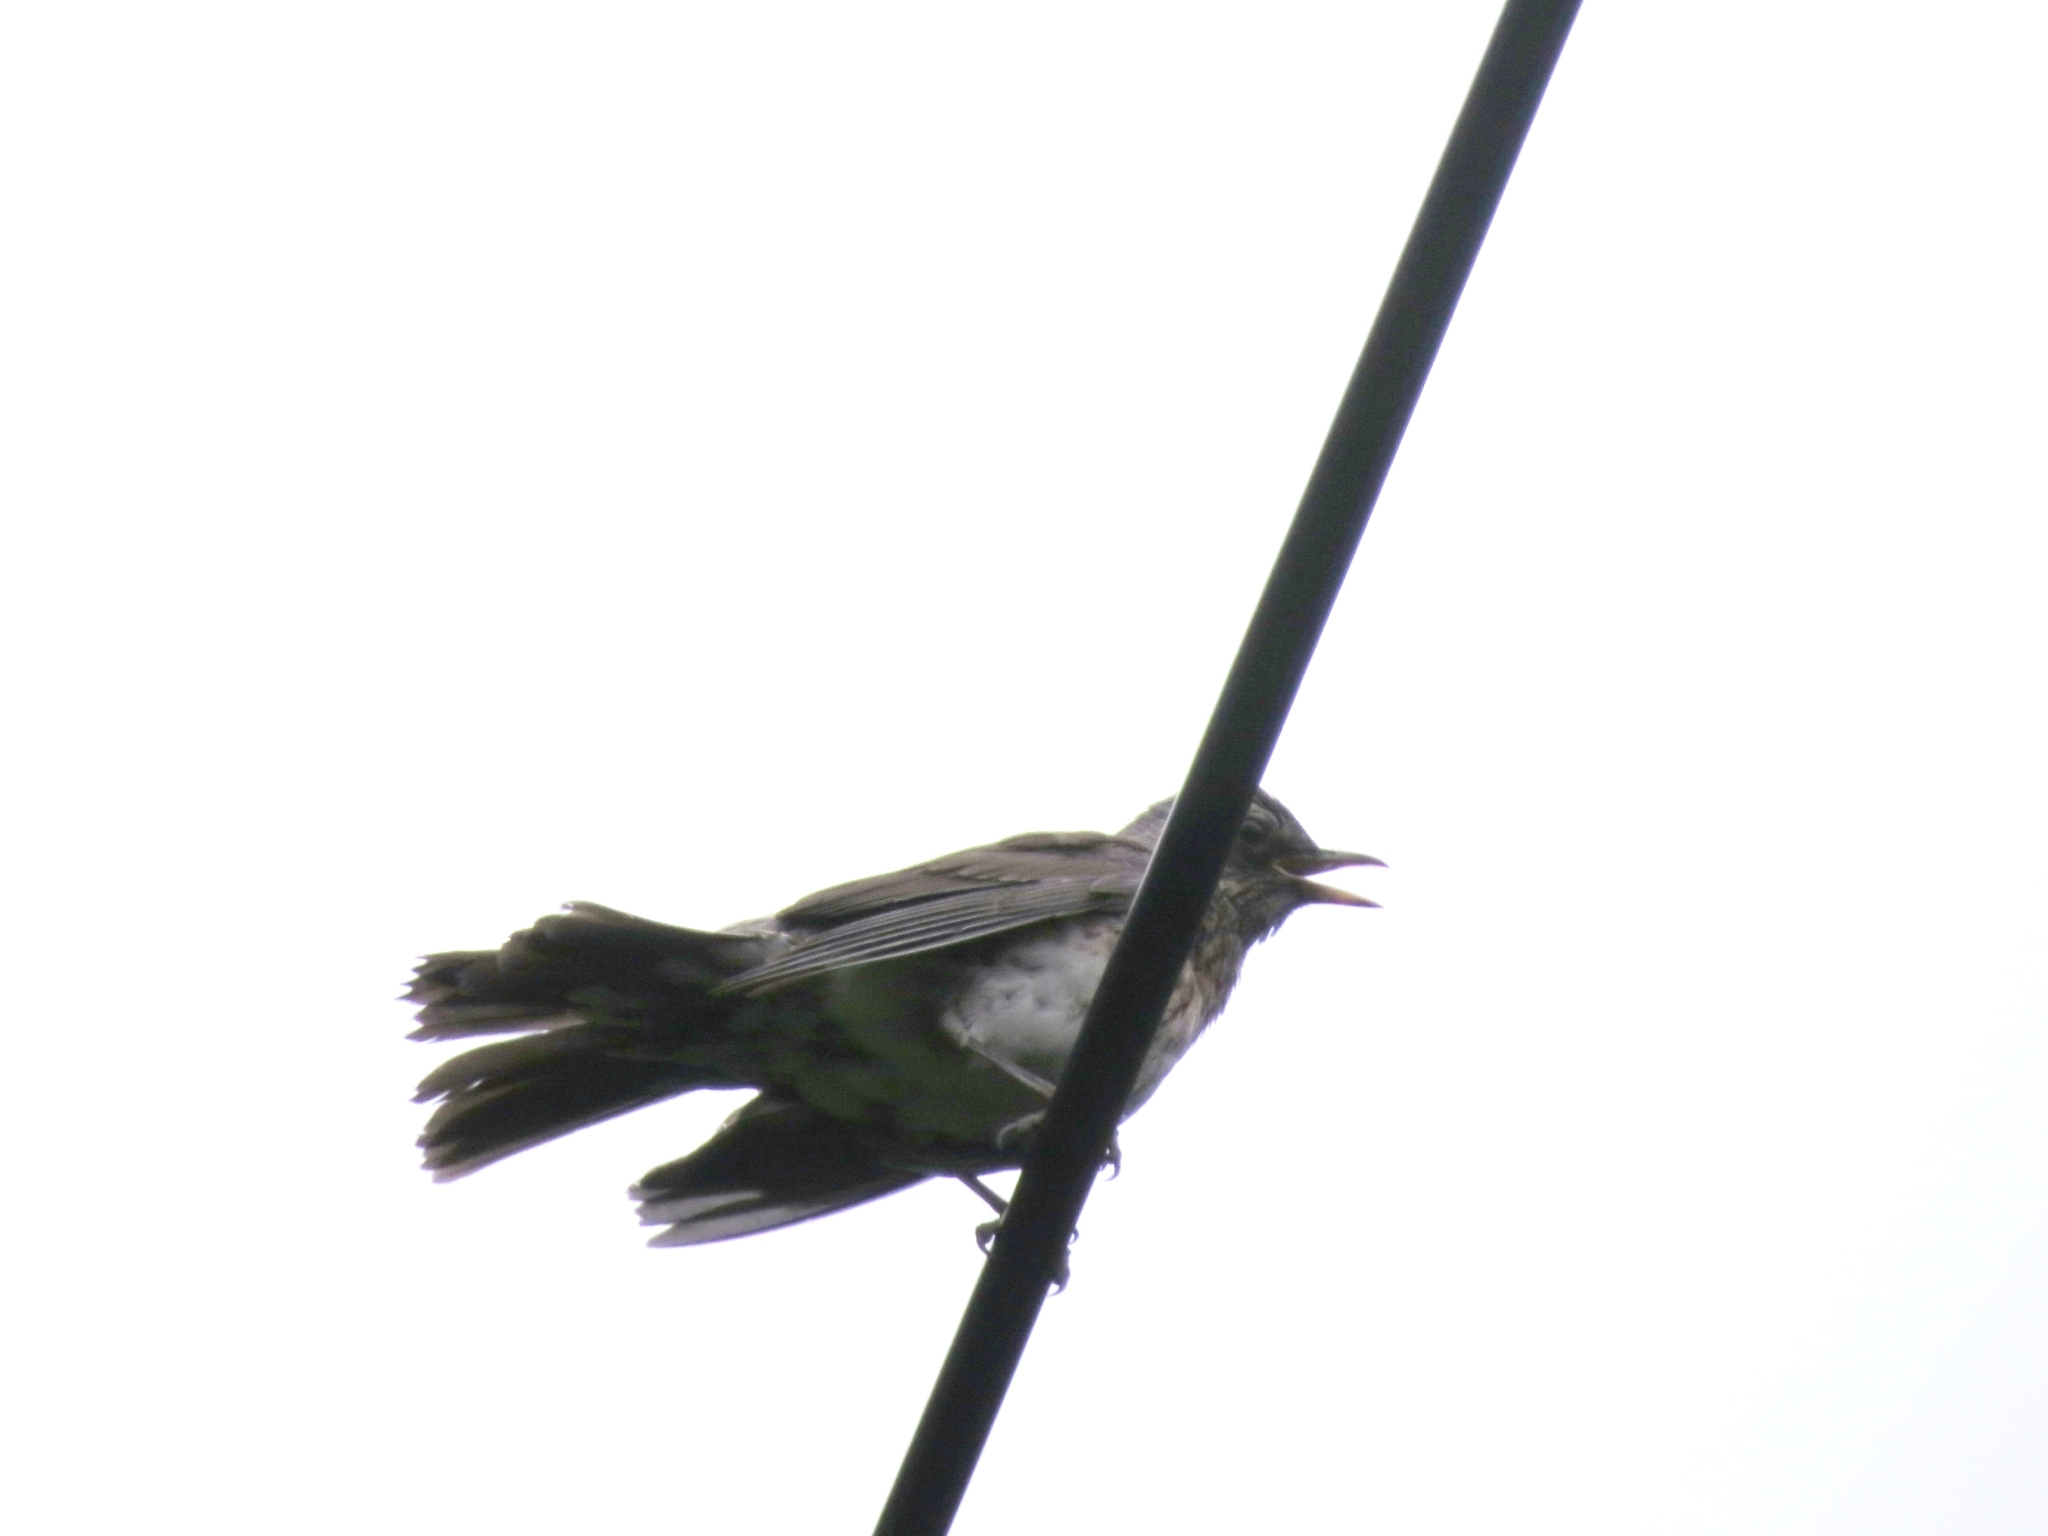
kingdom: Animalia
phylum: Chordata
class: Aves
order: Passeriformes
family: Turdidae
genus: Turdus
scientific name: Turdus pilaris
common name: Fieldfare
